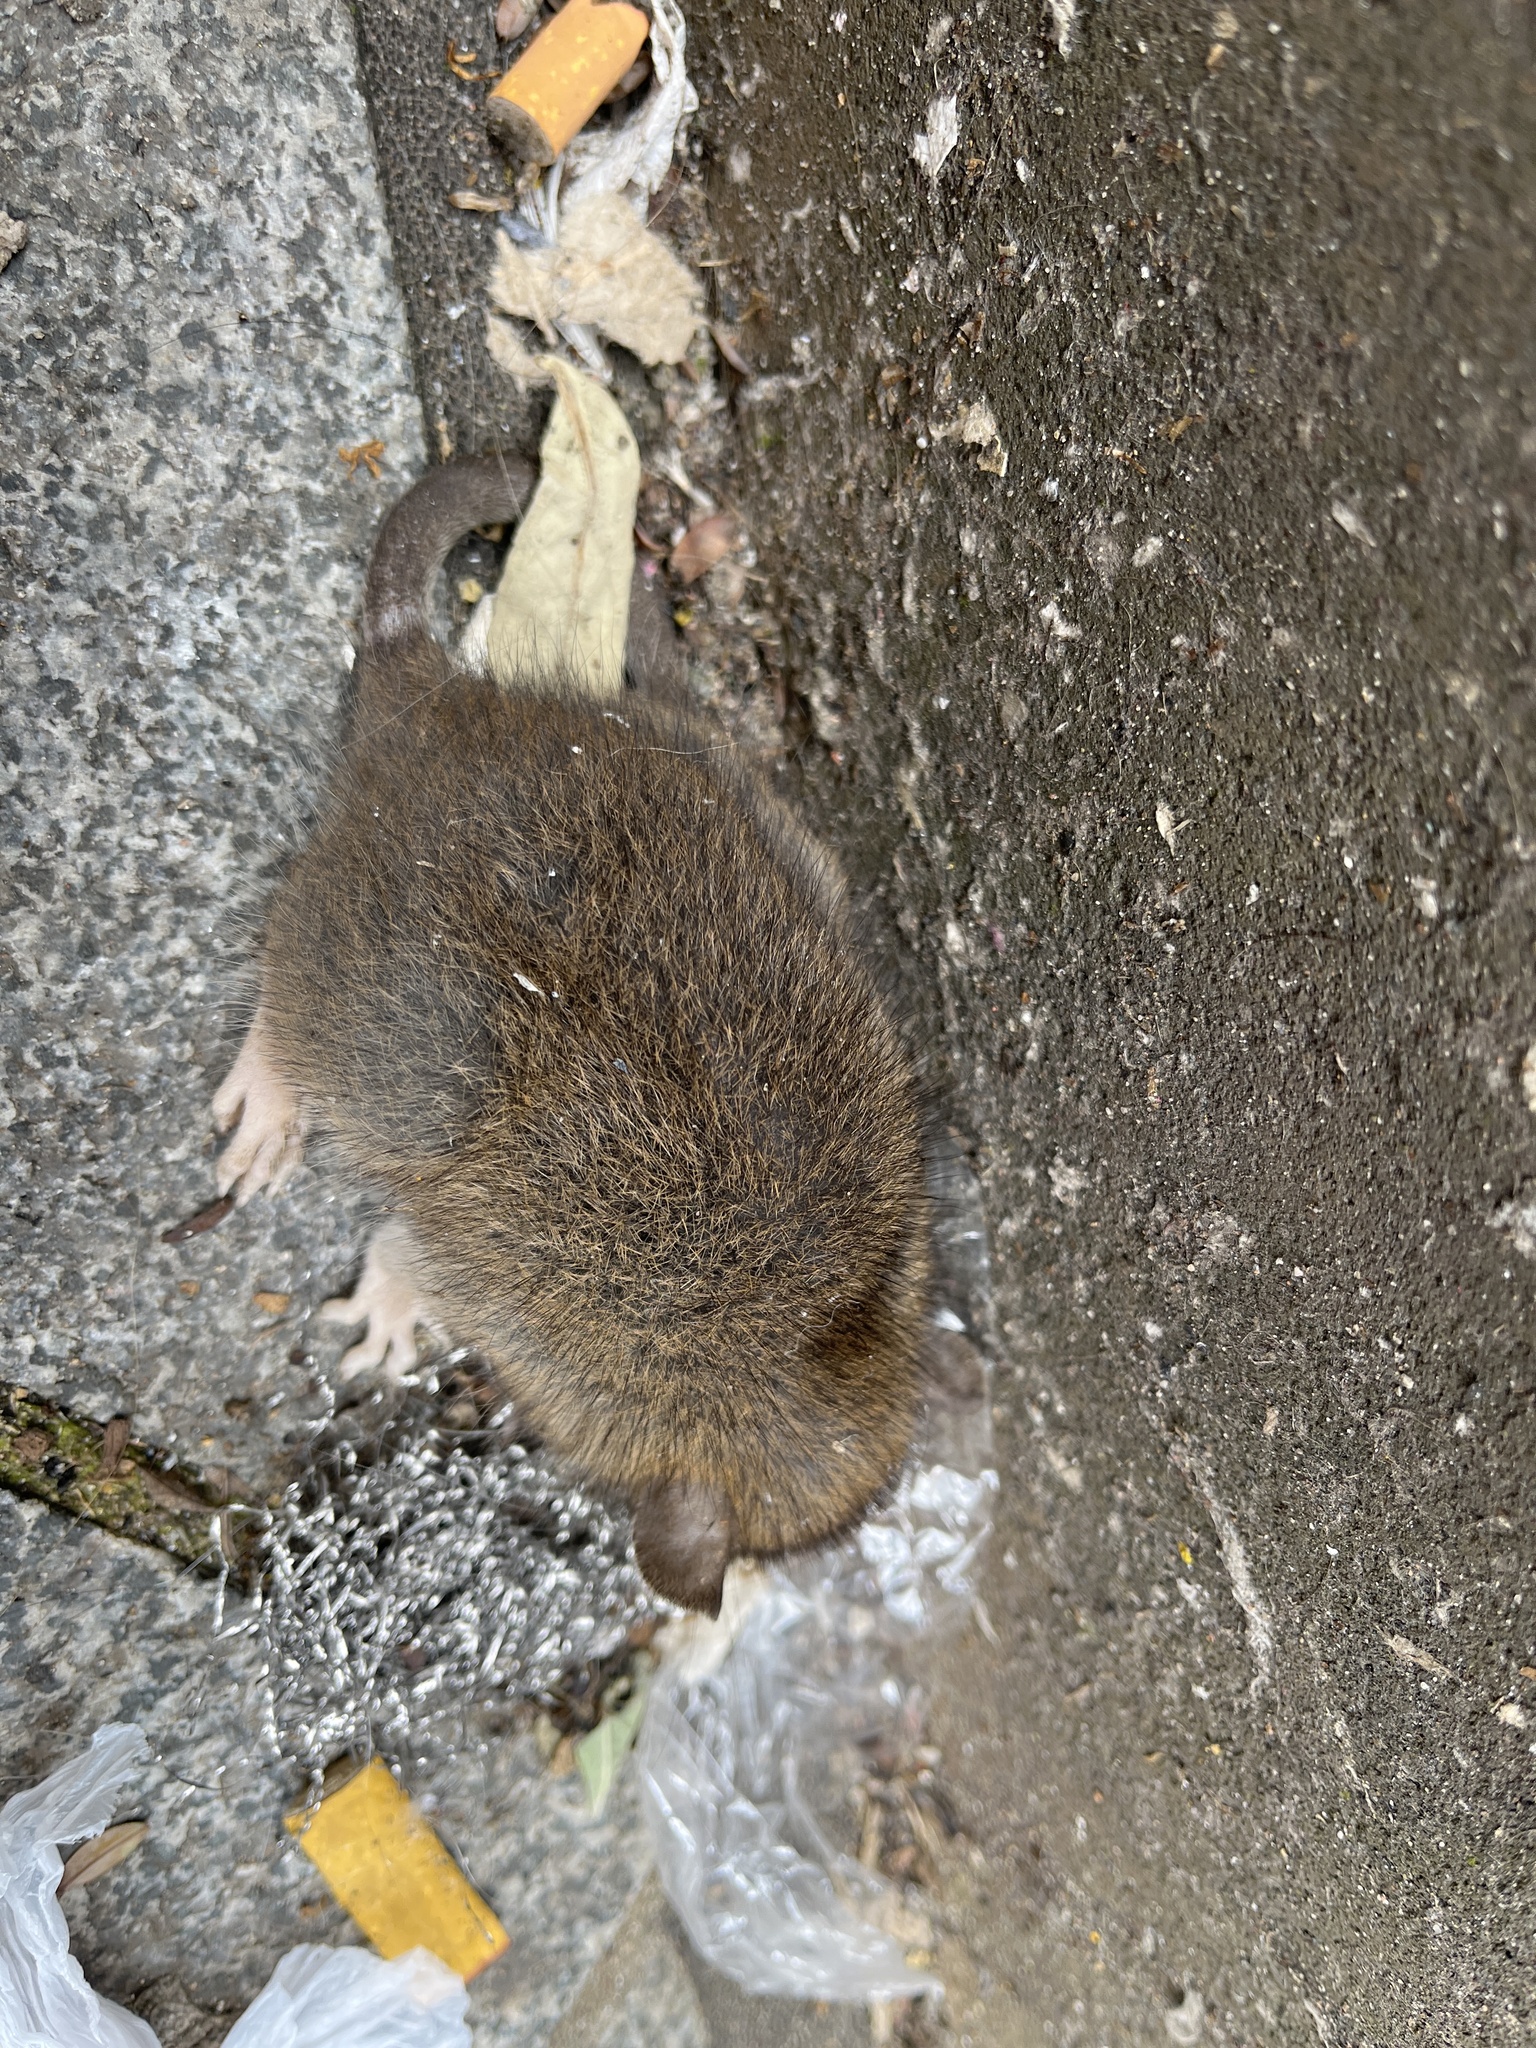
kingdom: Animalia
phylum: Chordata
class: Mammalia
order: Rodentia
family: Muridae
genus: Rattus
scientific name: Rattus norvegicus
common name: Brown rat
